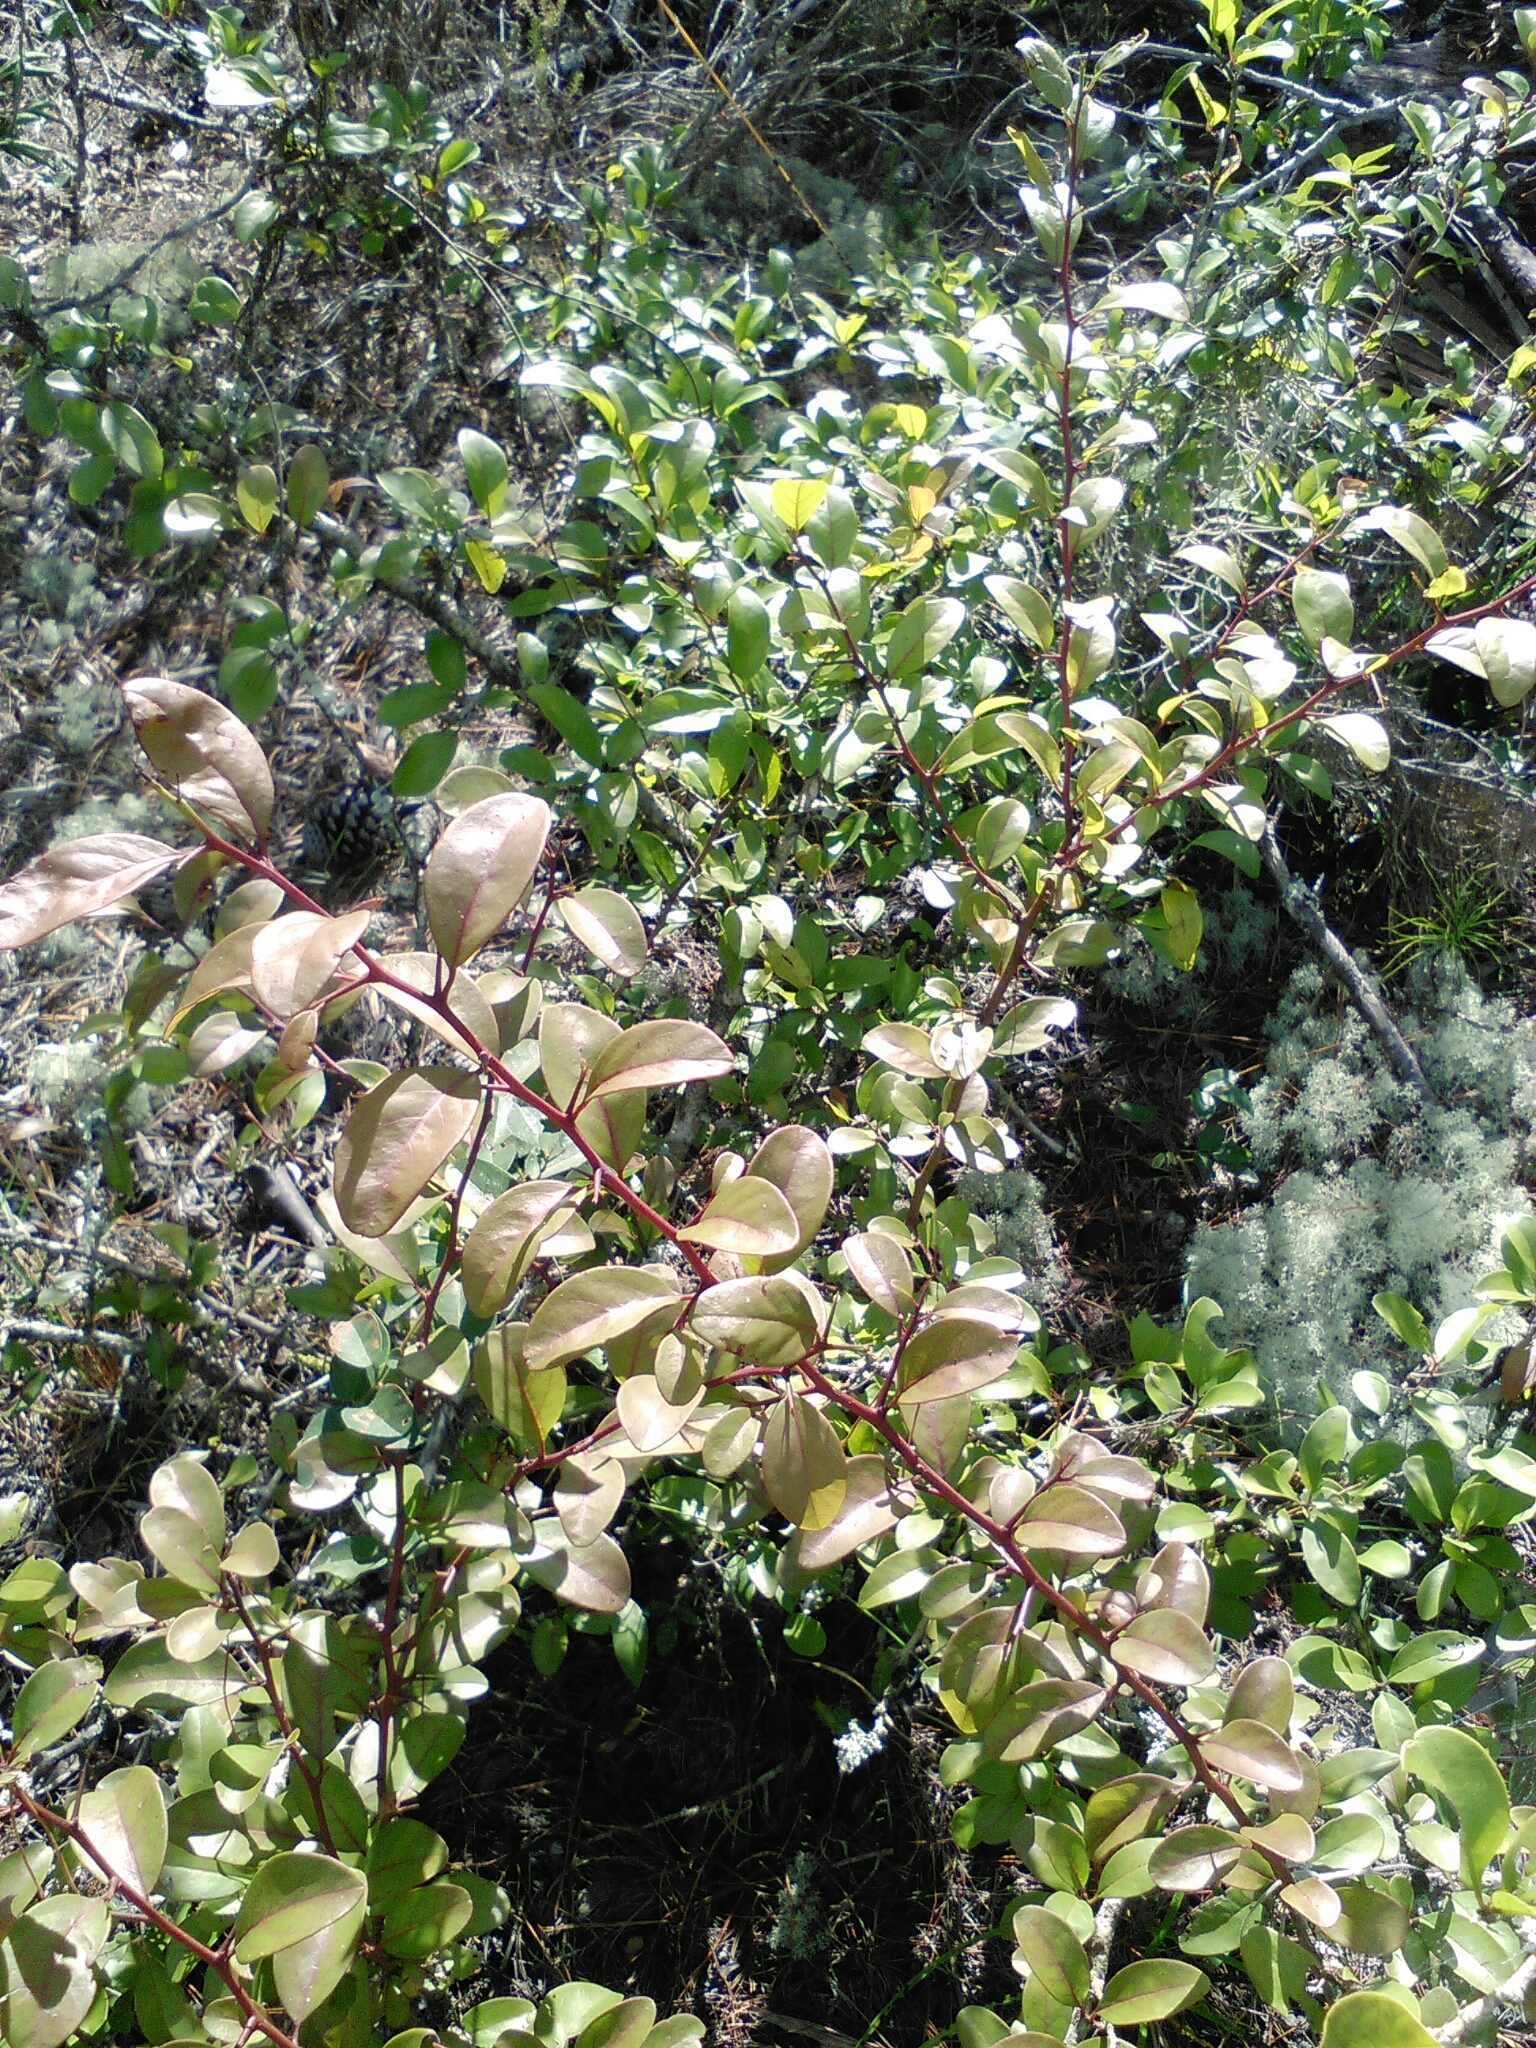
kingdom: Plantae
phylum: Tracheophyta
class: Magnoliopsida
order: Santalales
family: Ximeniaceae
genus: Ximenia
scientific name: Ximenia americana
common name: Tallowwood
